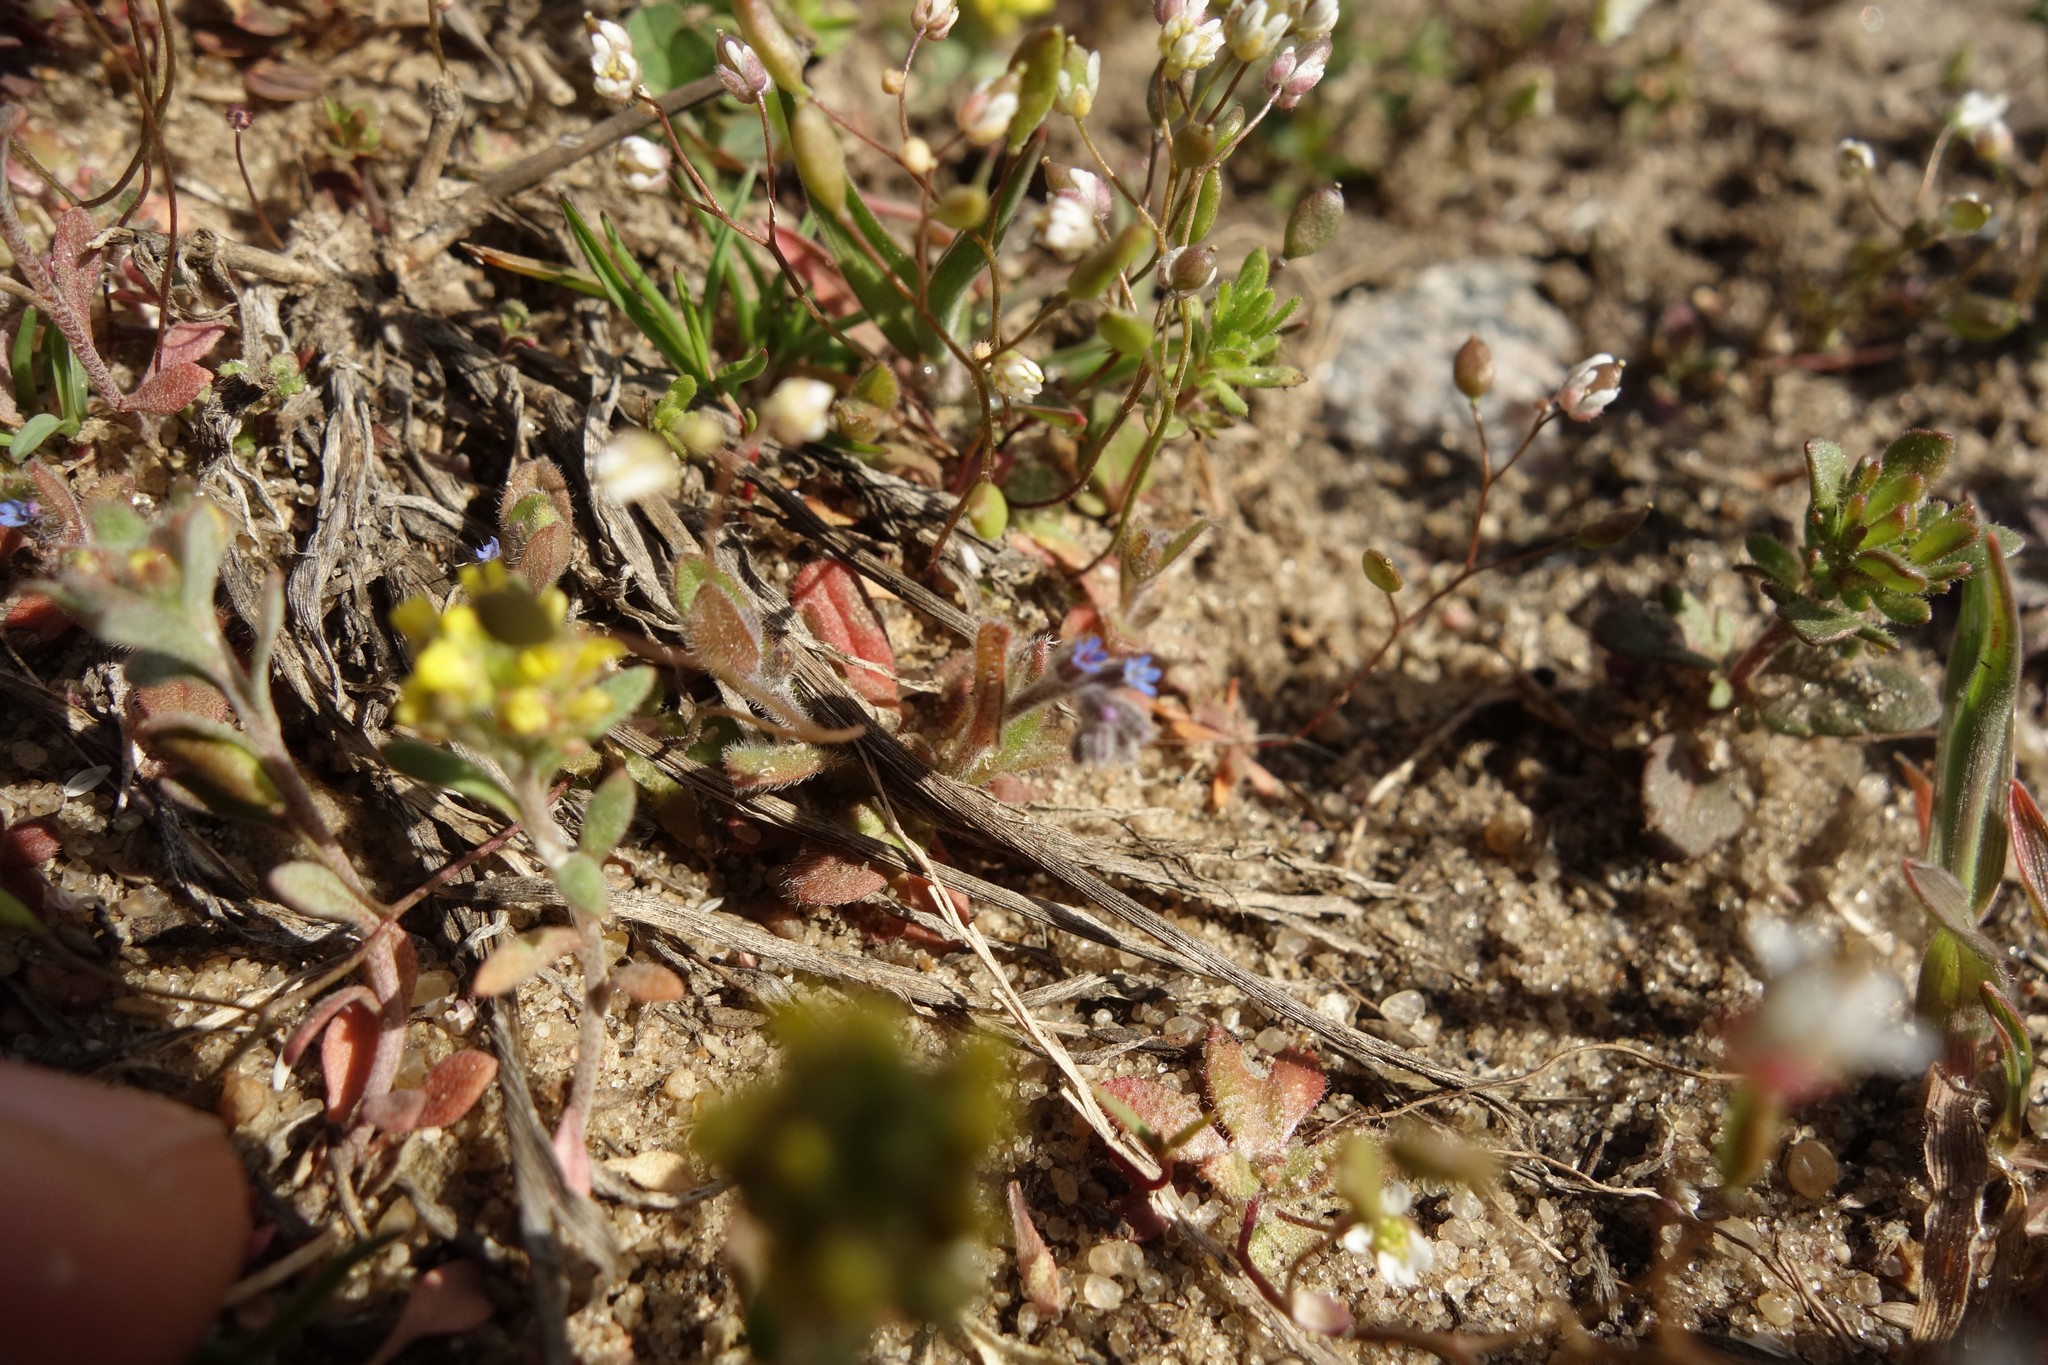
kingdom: Plantae
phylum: Tracheophyta
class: Magnoliopsida
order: Boraginales
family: Boraginaceae
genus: Myosotis
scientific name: Myosotis stricta
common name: Strict forget-me-not
